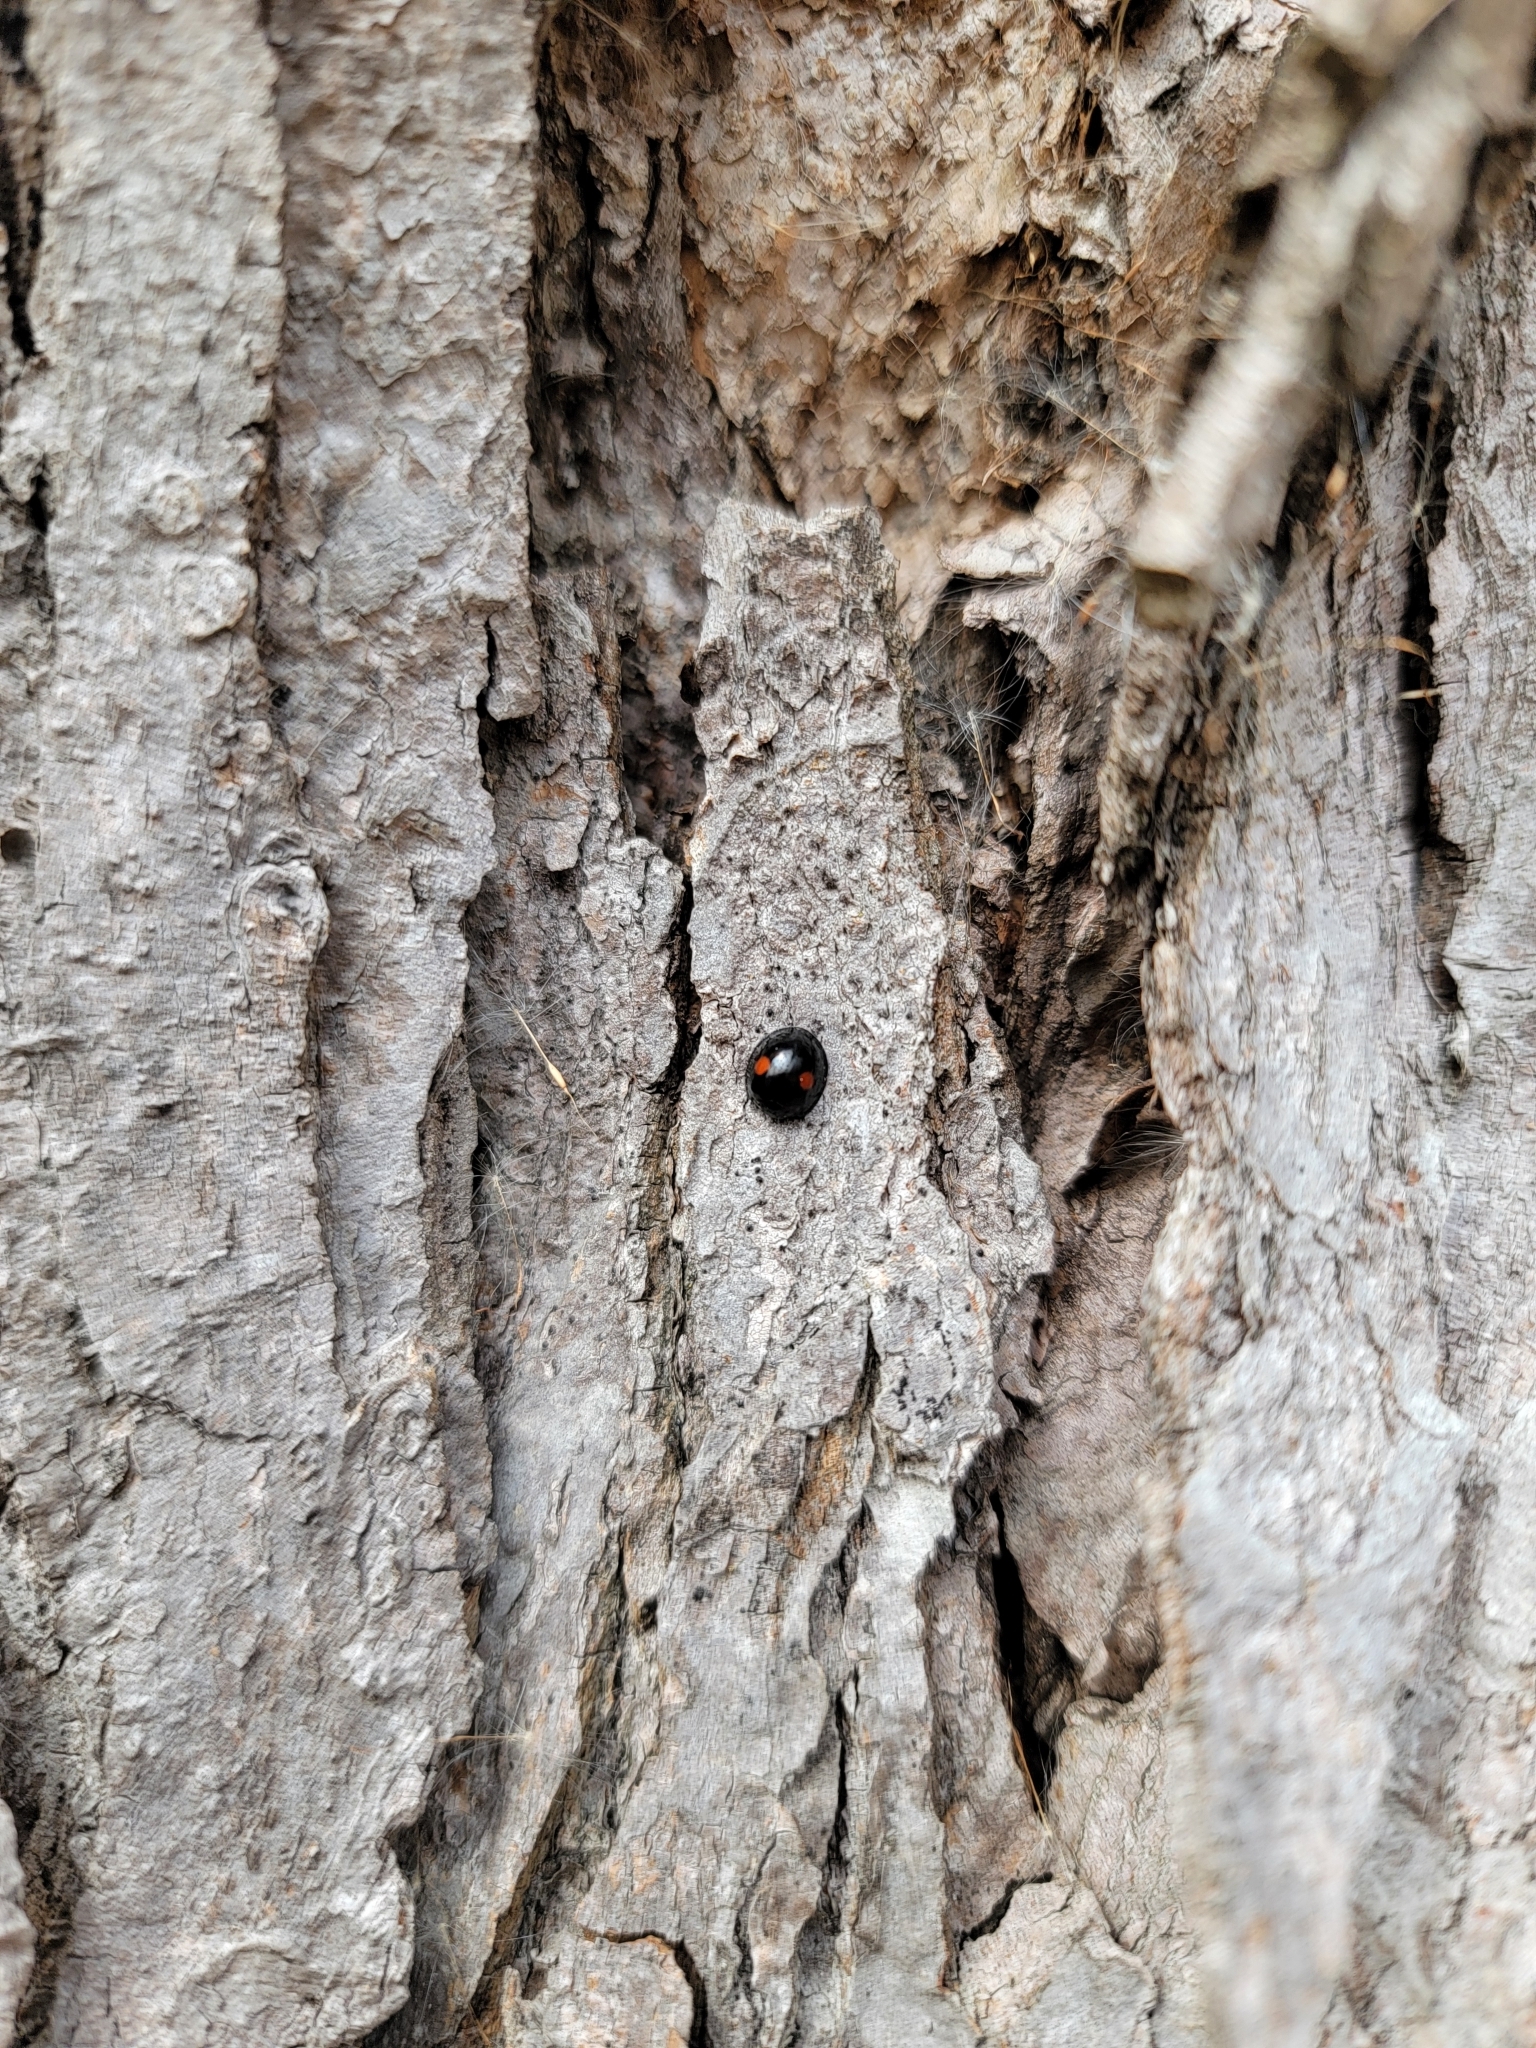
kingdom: Animalia
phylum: Arthropoda
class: Insecta
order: Coleoptera
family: Coccinellidae
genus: Chilocorus
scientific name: Chilocorus stigma
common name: Twicestabbed lady beetle
